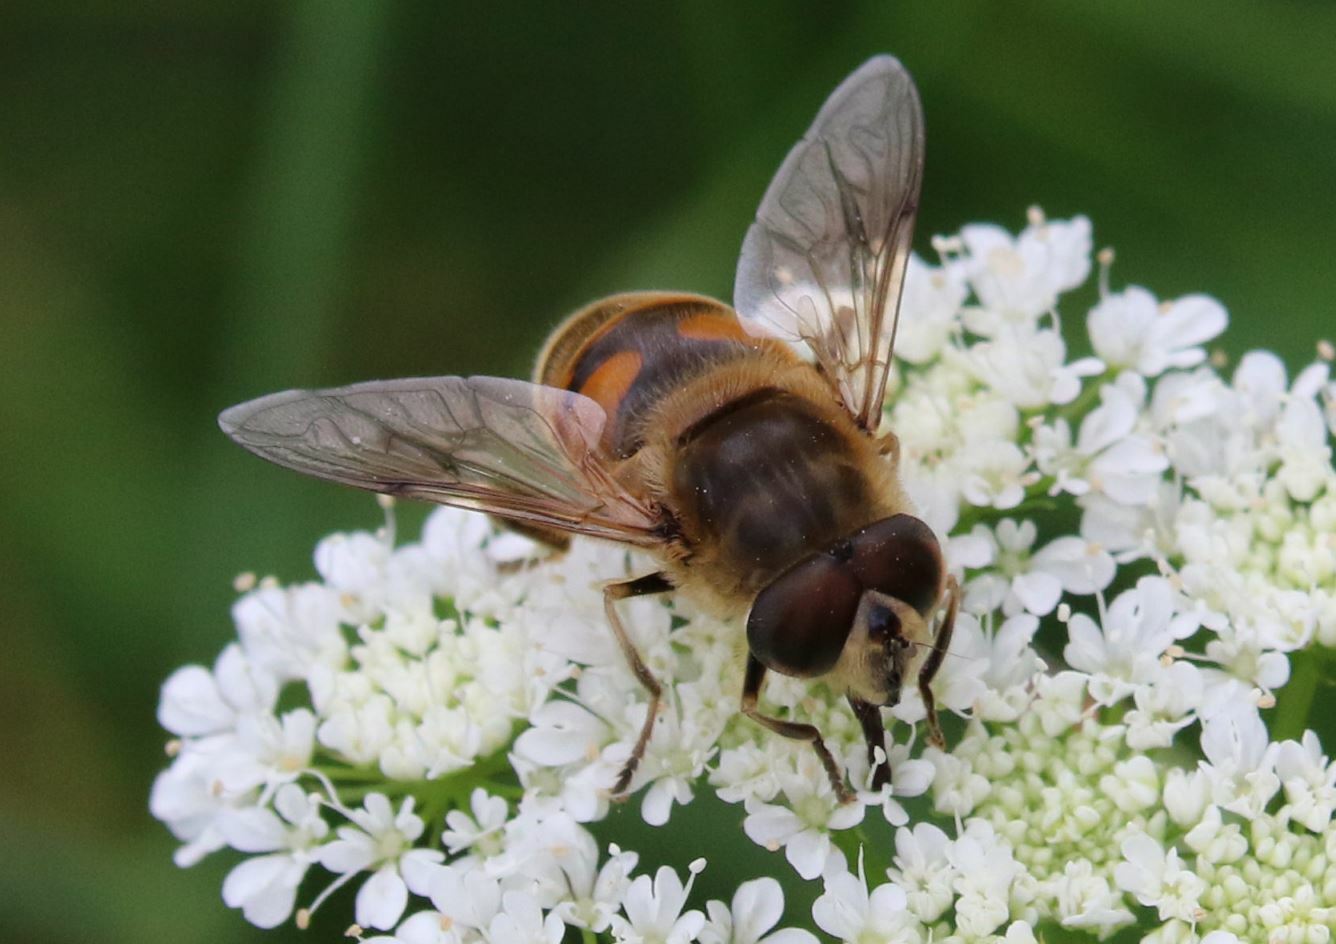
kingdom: Animalia
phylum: Arthropoda
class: Insecta
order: Diptera
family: Syrphidae
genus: Eristalis
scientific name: Eristalis tenax
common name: Drone fly
